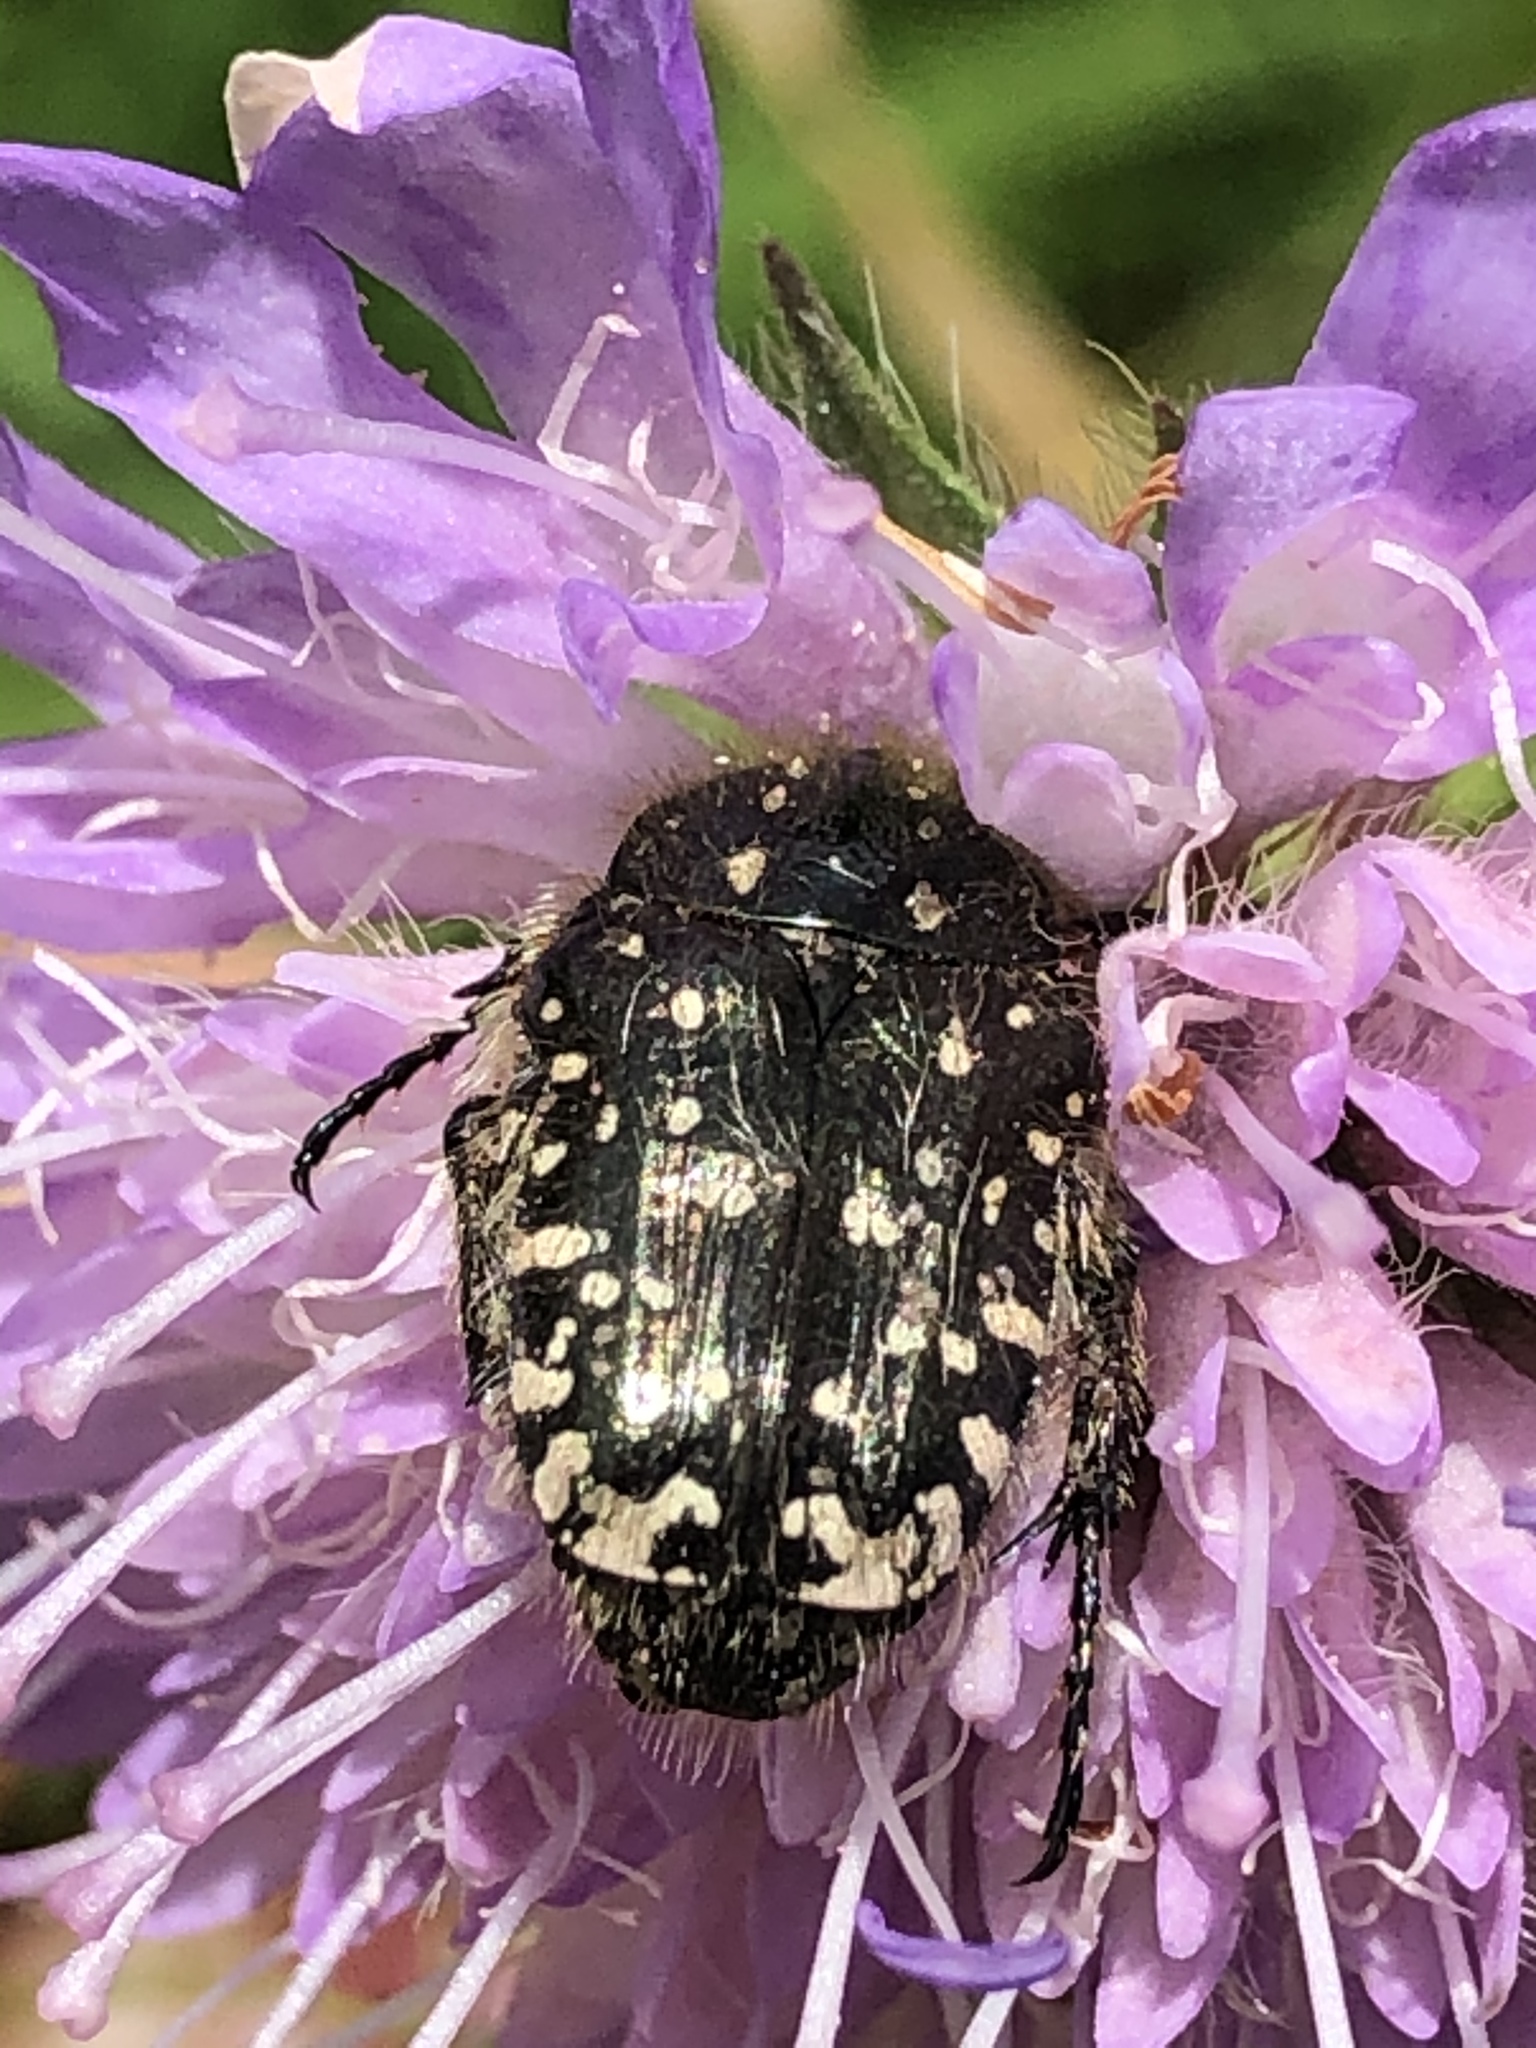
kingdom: Animalia
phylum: Arthropoda
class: Insecta
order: Coleoptera
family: Scarabaeidae
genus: Oxythyrea
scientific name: Oxythyrea funesta
